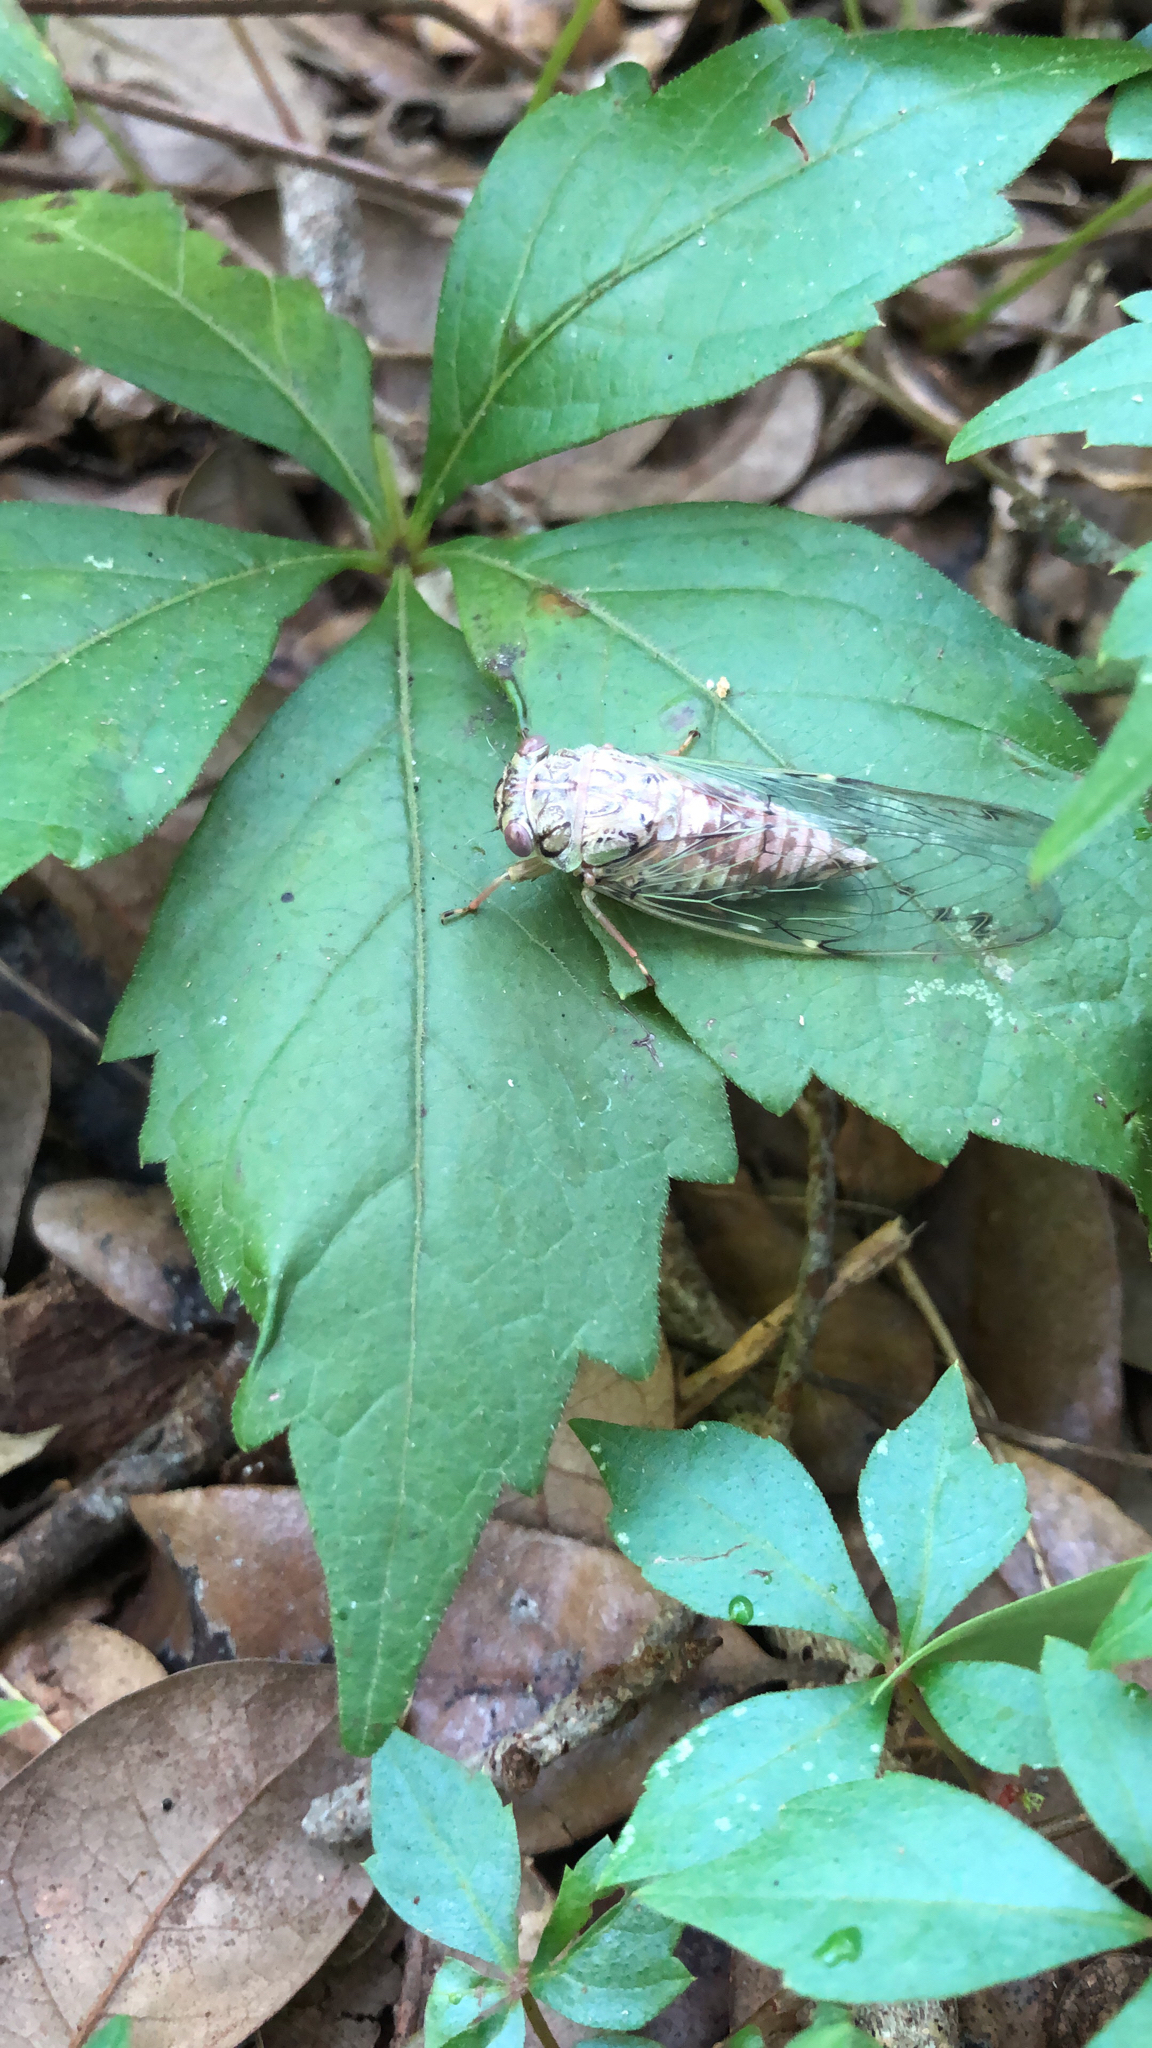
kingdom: Animalia
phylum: Arthropoda
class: Insecta
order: Hemiptera
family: Cicadidae
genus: Neocicada
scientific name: Neocicada hieroglyphica
